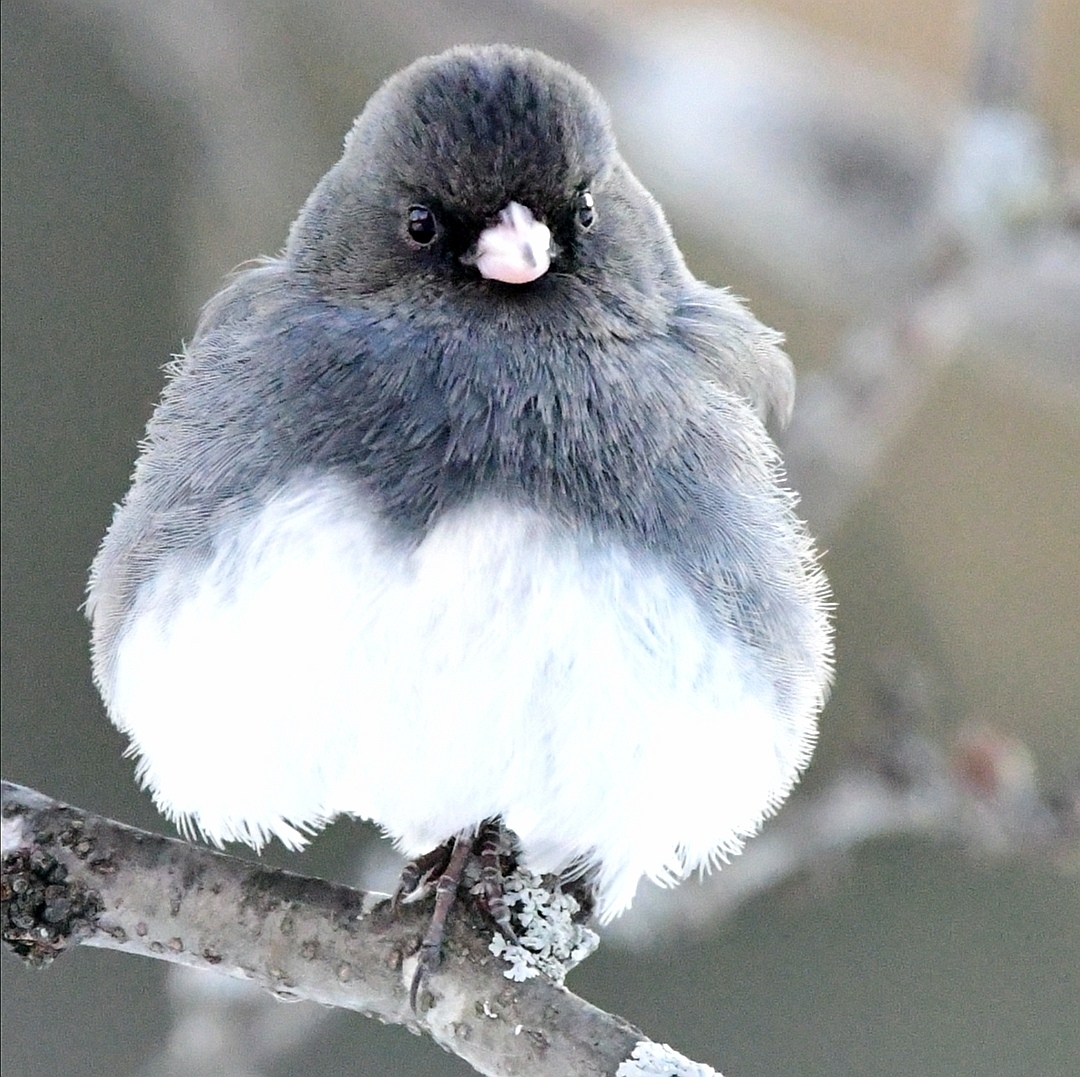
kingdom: Animalia
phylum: Chordata
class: Aves
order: Passeriformes
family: Passerellidae
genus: Junco
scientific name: Junco hyemalis
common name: Dark-eyed junco
